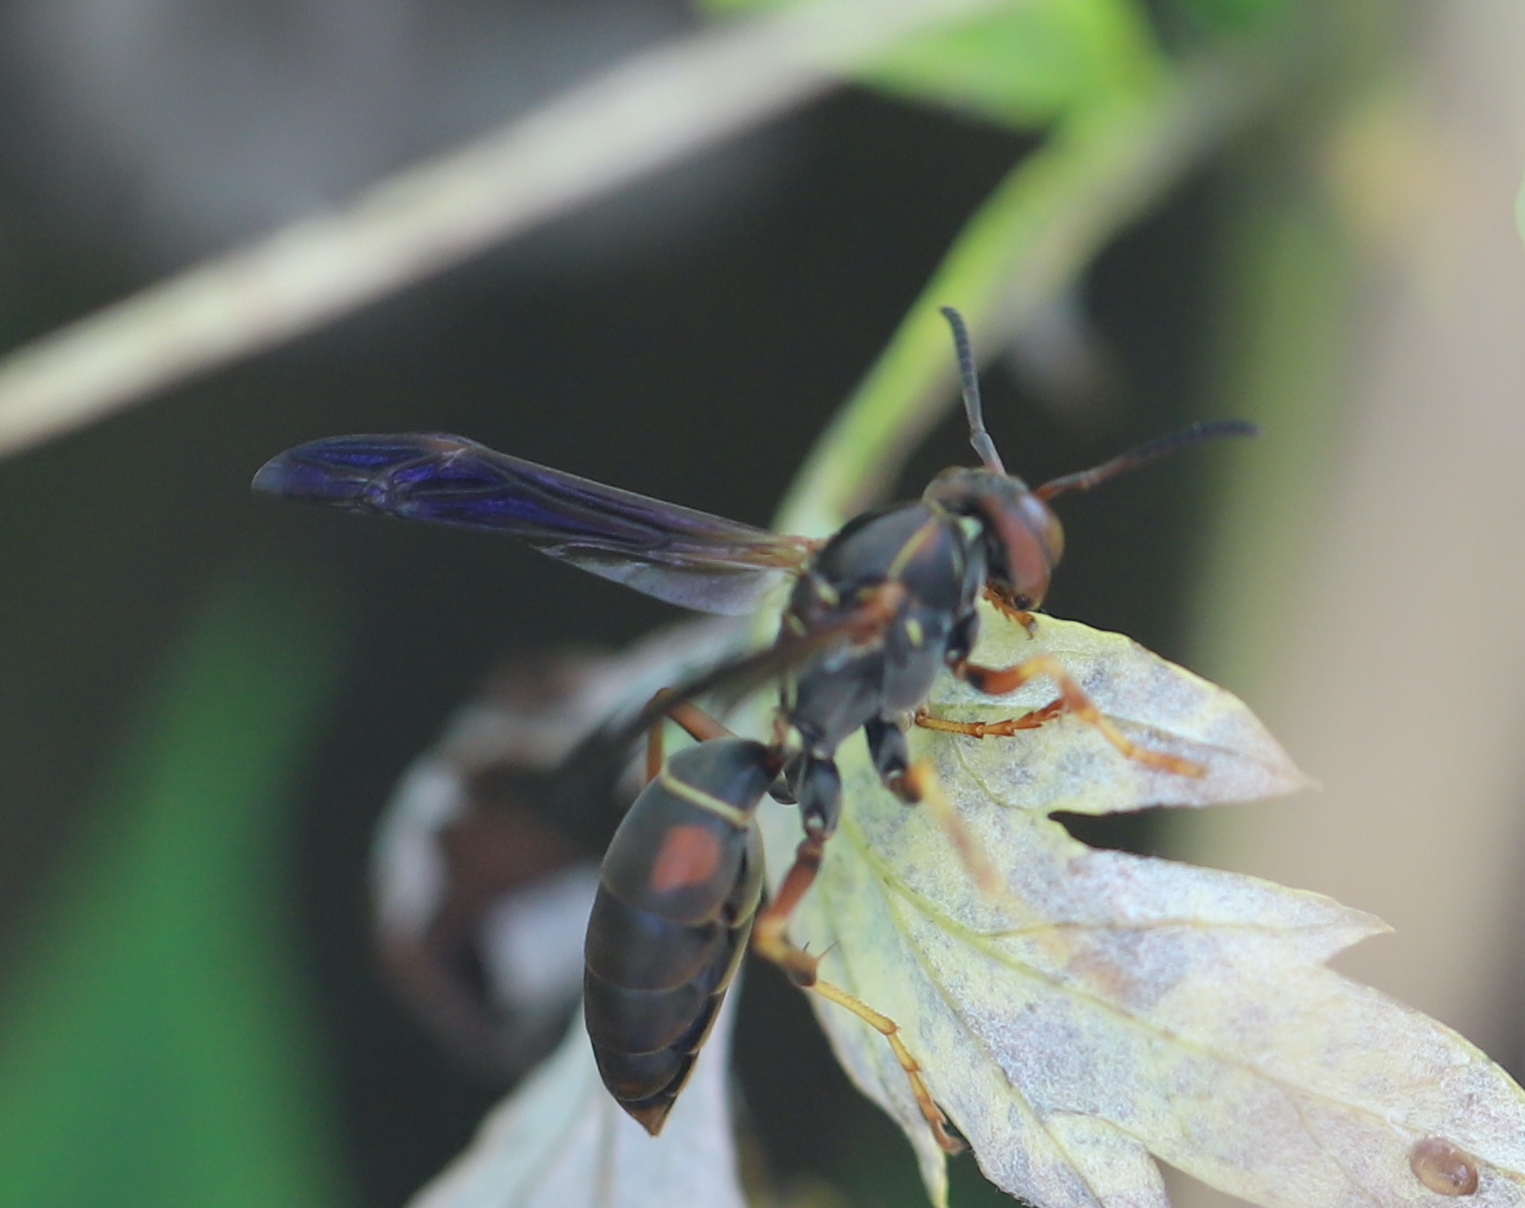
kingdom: Animalia
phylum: Arthropoda
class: Insecta
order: Hymenoptera
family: Eumenidae
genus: Polistes
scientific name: Polistes fuscatus
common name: Dark paper wasp
